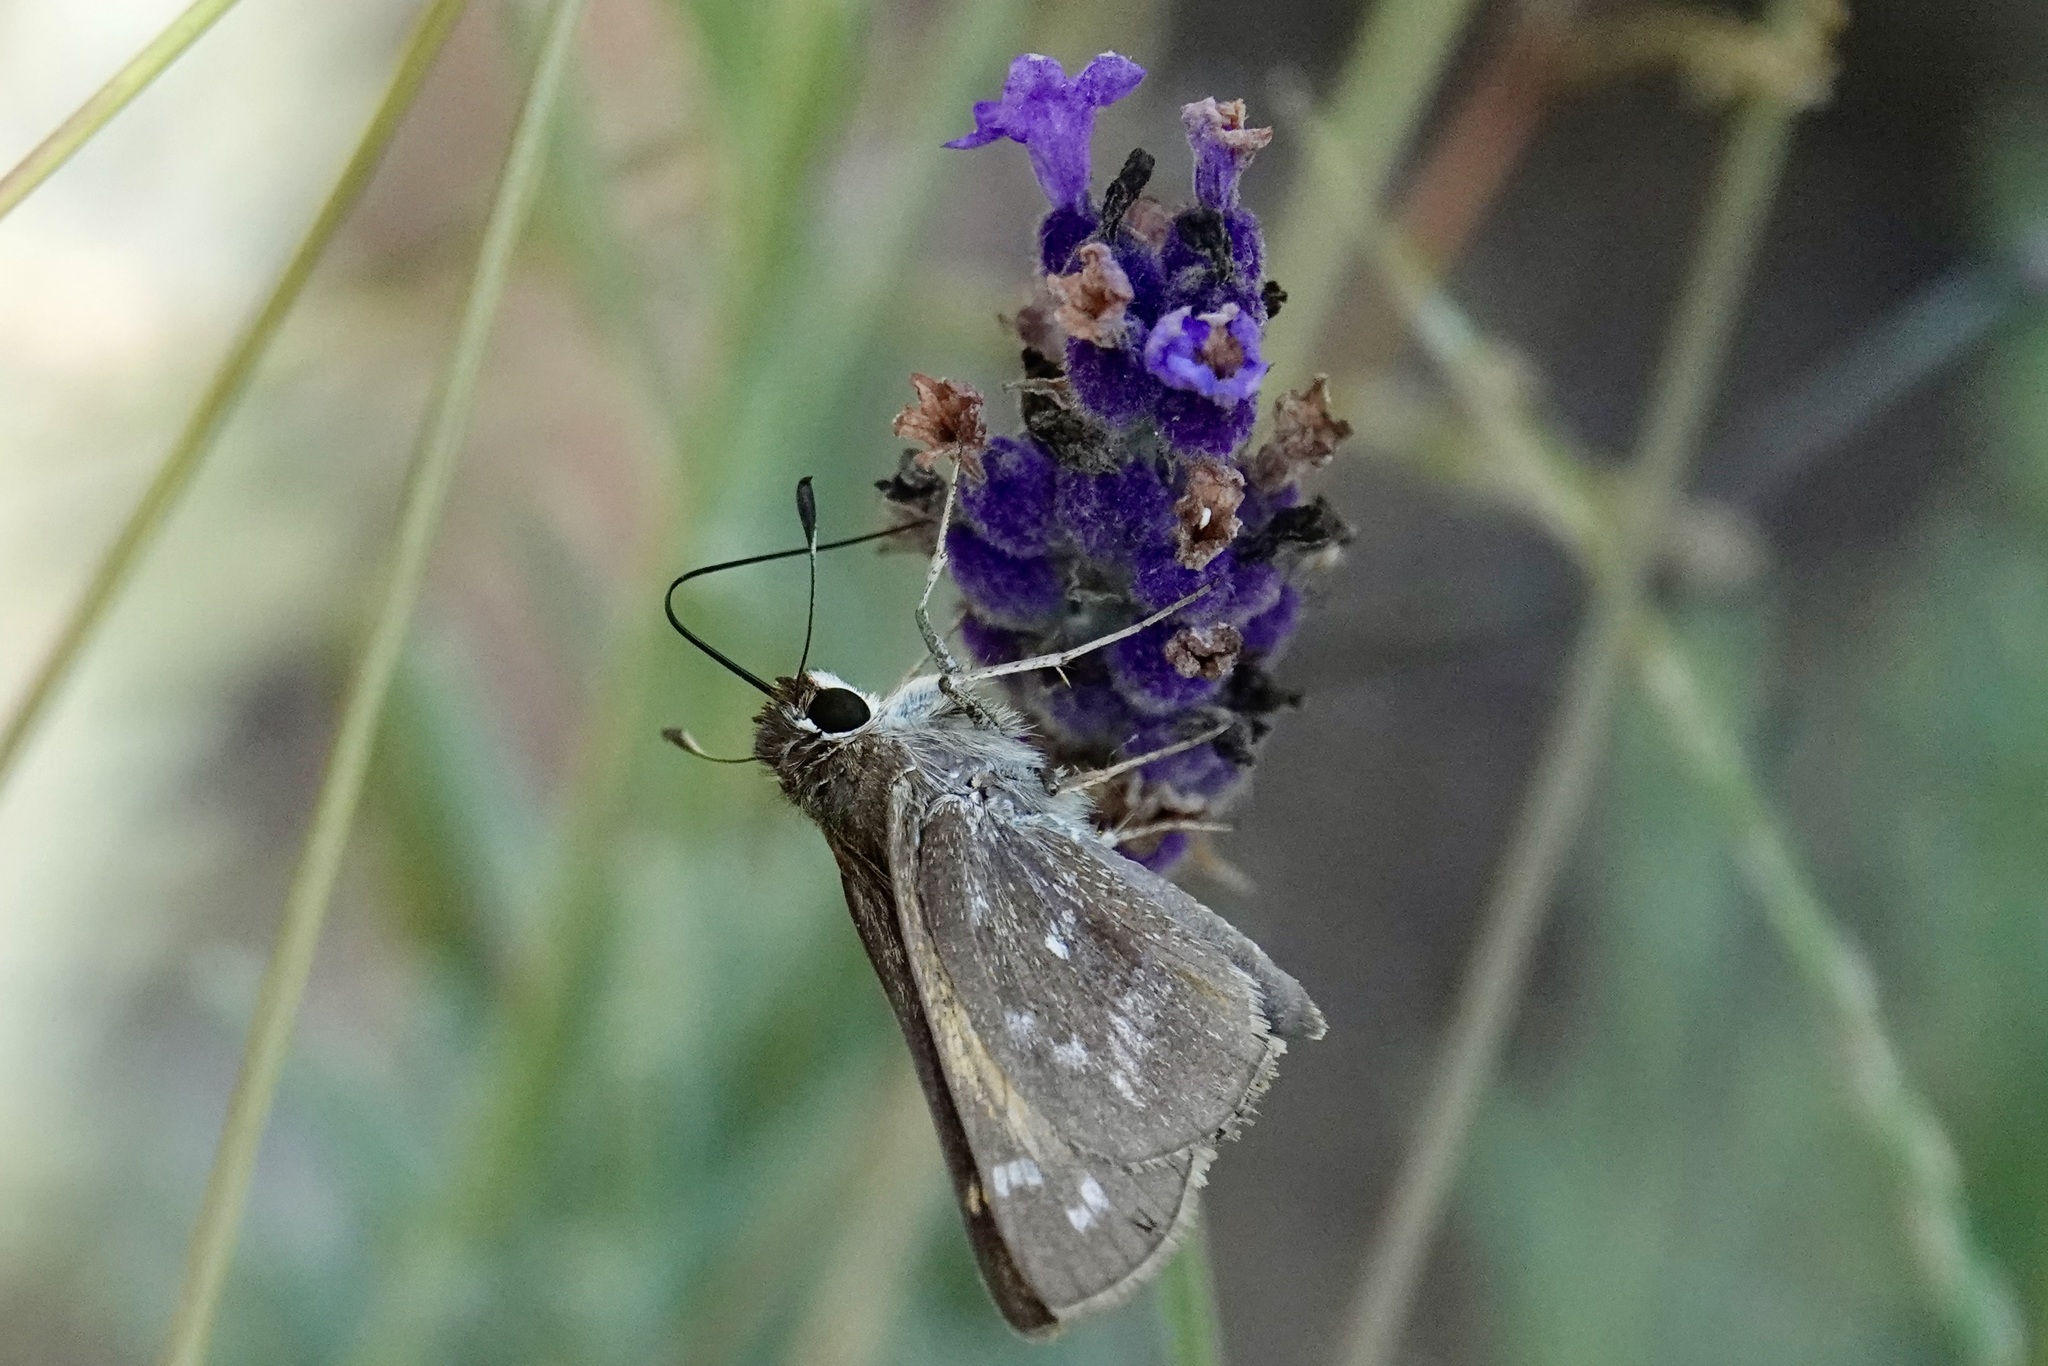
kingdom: Animalia
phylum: Arthropoda
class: Insecta
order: Lepidoptera
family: Hesperiidae
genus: Atalopedes
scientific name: Atalopedes
